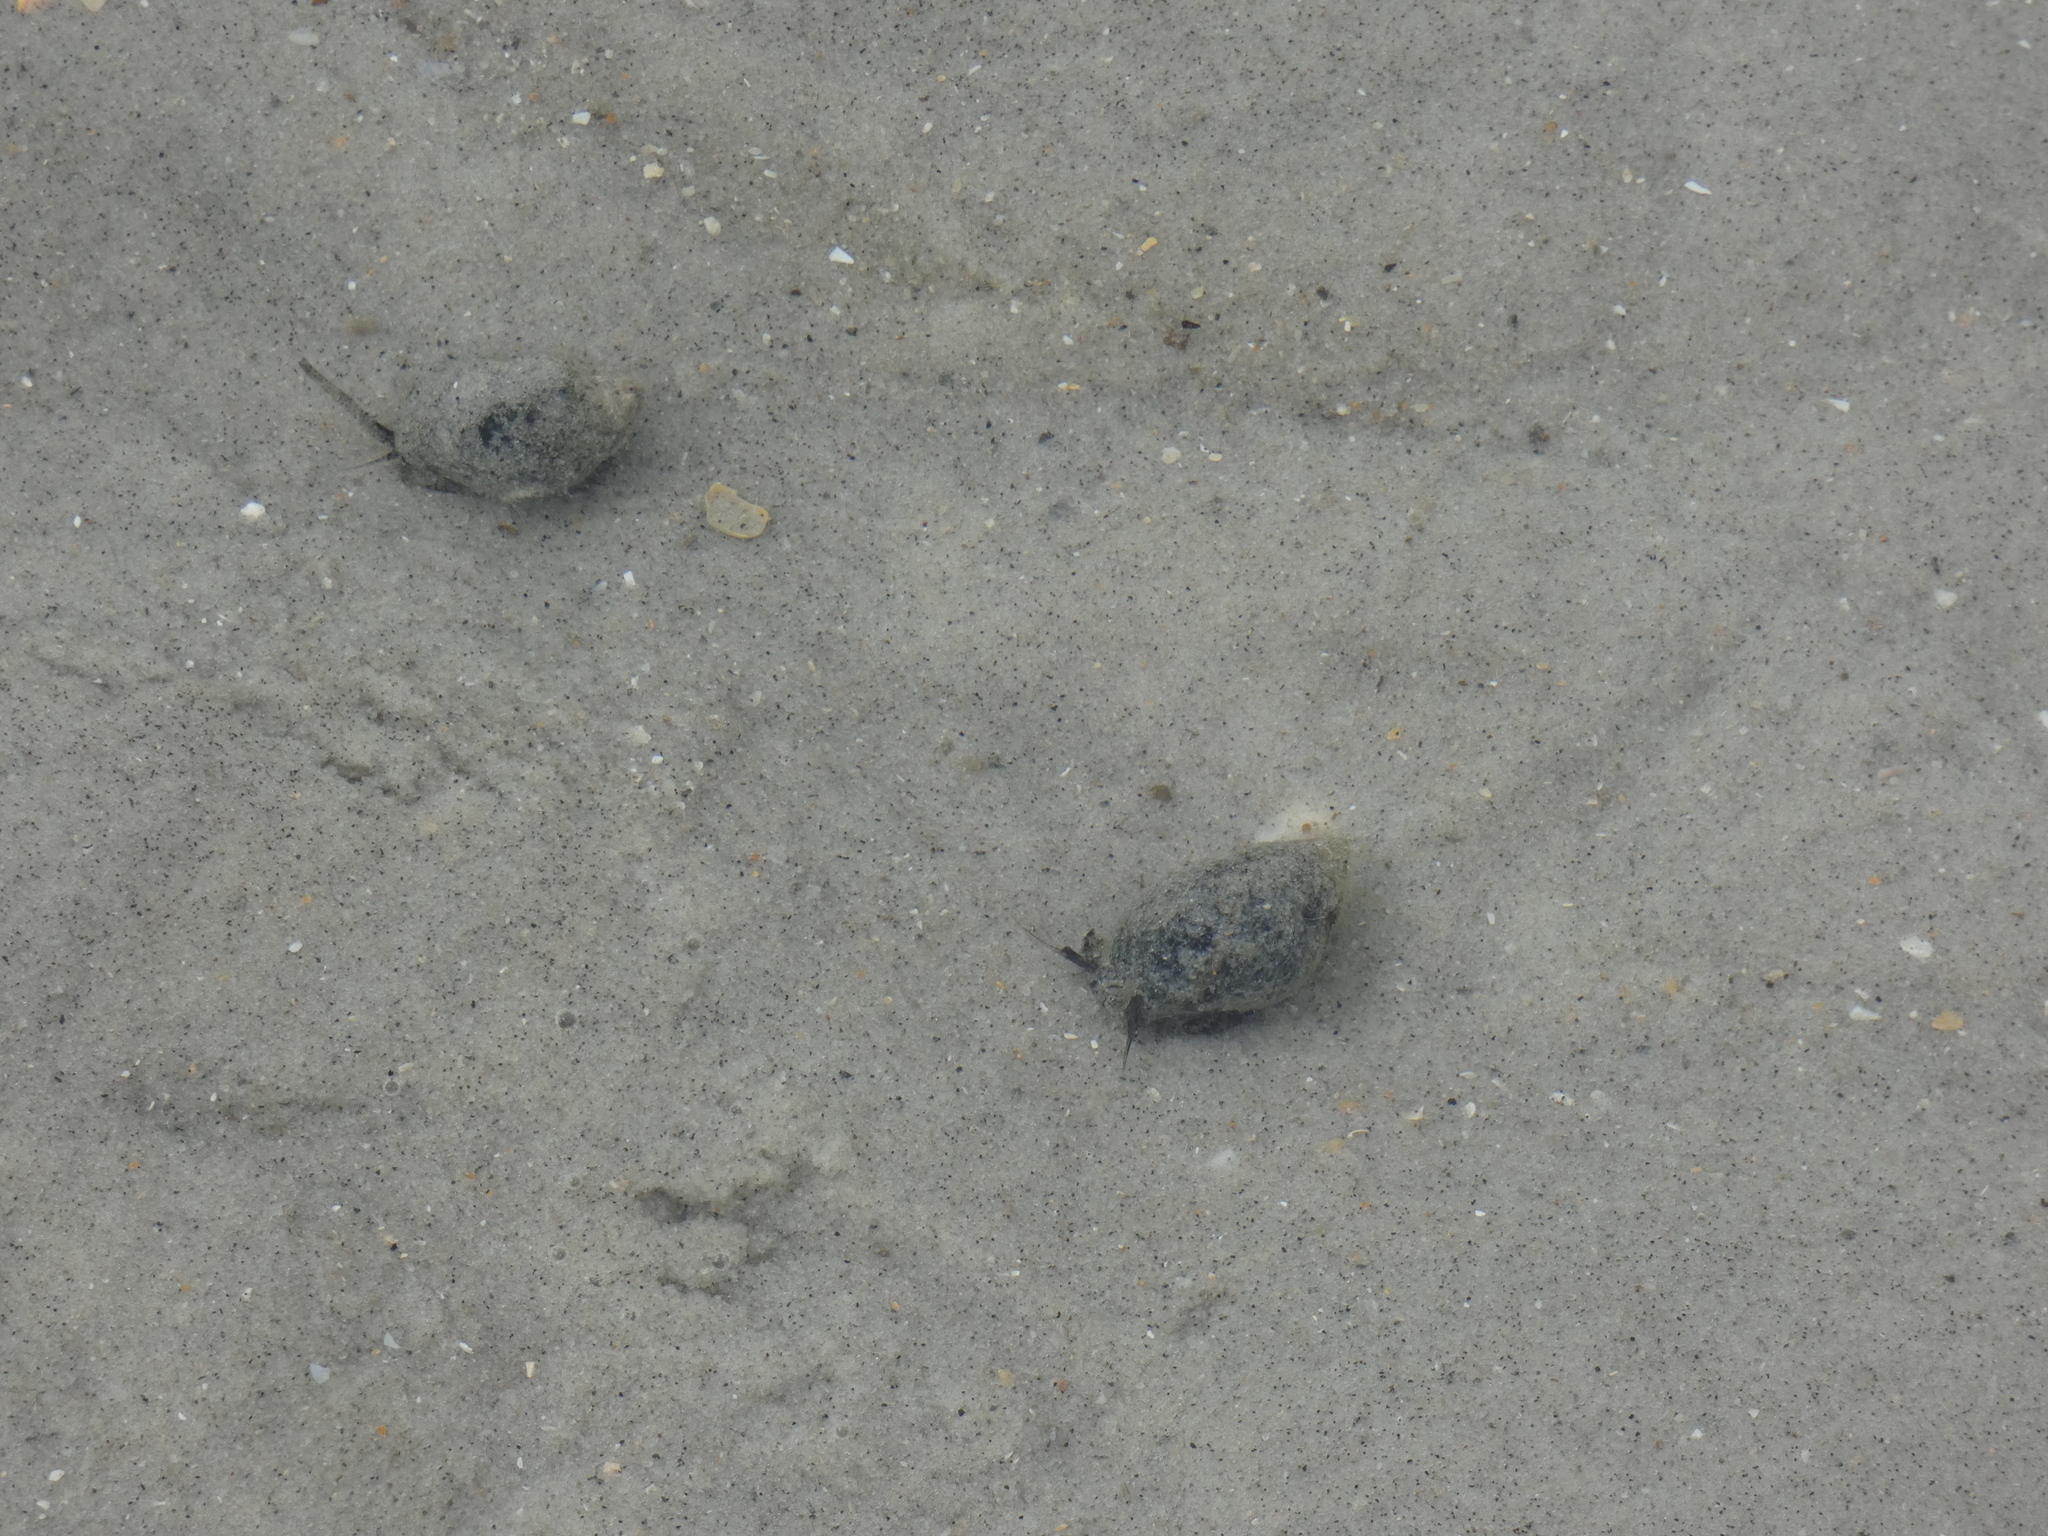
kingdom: Animalia
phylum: Mollusca
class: Gastropoda
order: Neogastropoda
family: Nassariidae
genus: Ilyanassa
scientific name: Ilyanassa obsoleta
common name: Eastern mudsnail
